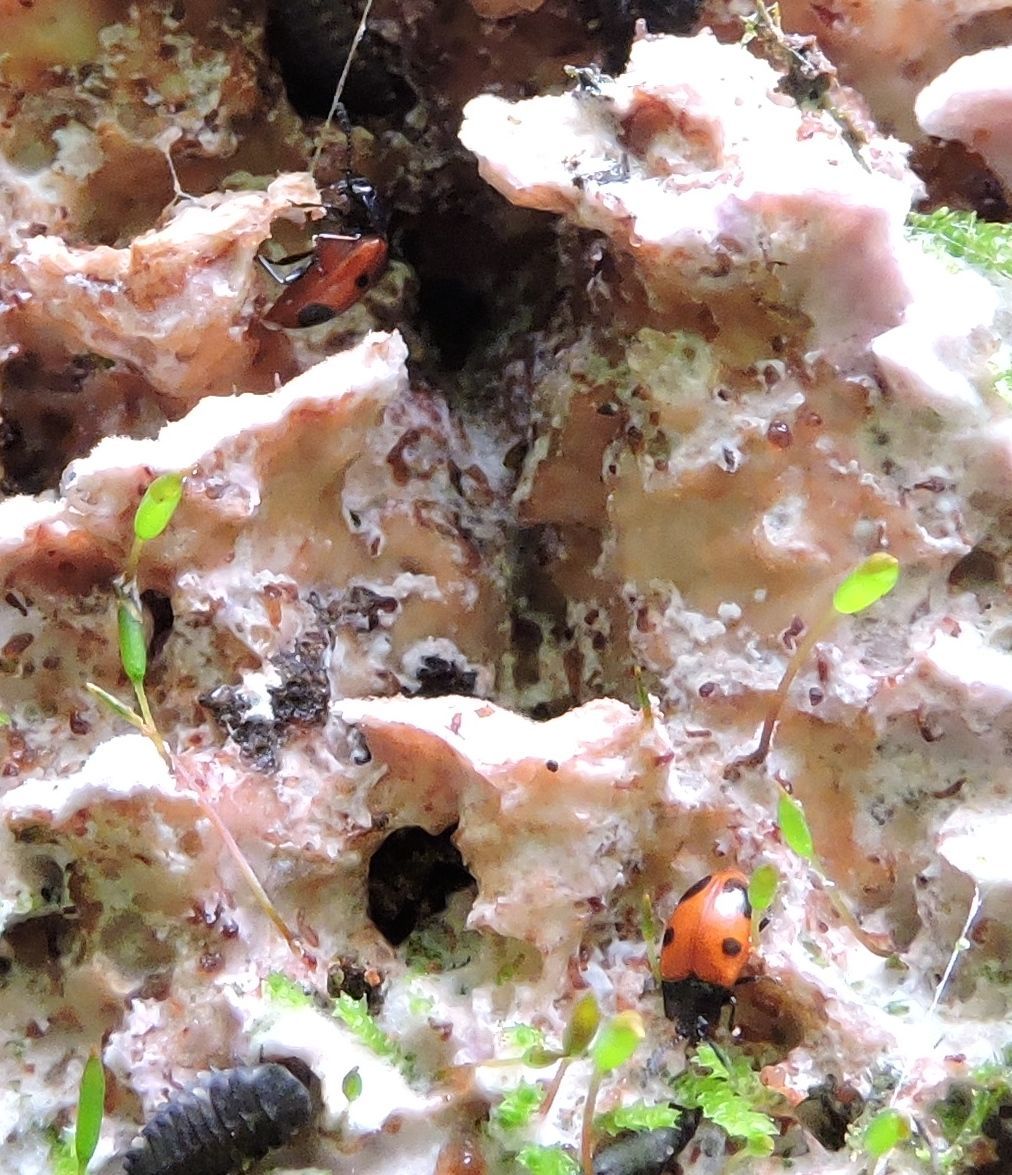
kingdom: Animalia
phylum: Arthropoda
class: Insecta
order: Coleoptera
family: Endomychidae
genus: Endomychus
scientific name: Endomychus biguttatus
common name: Handsome fungus beetle
